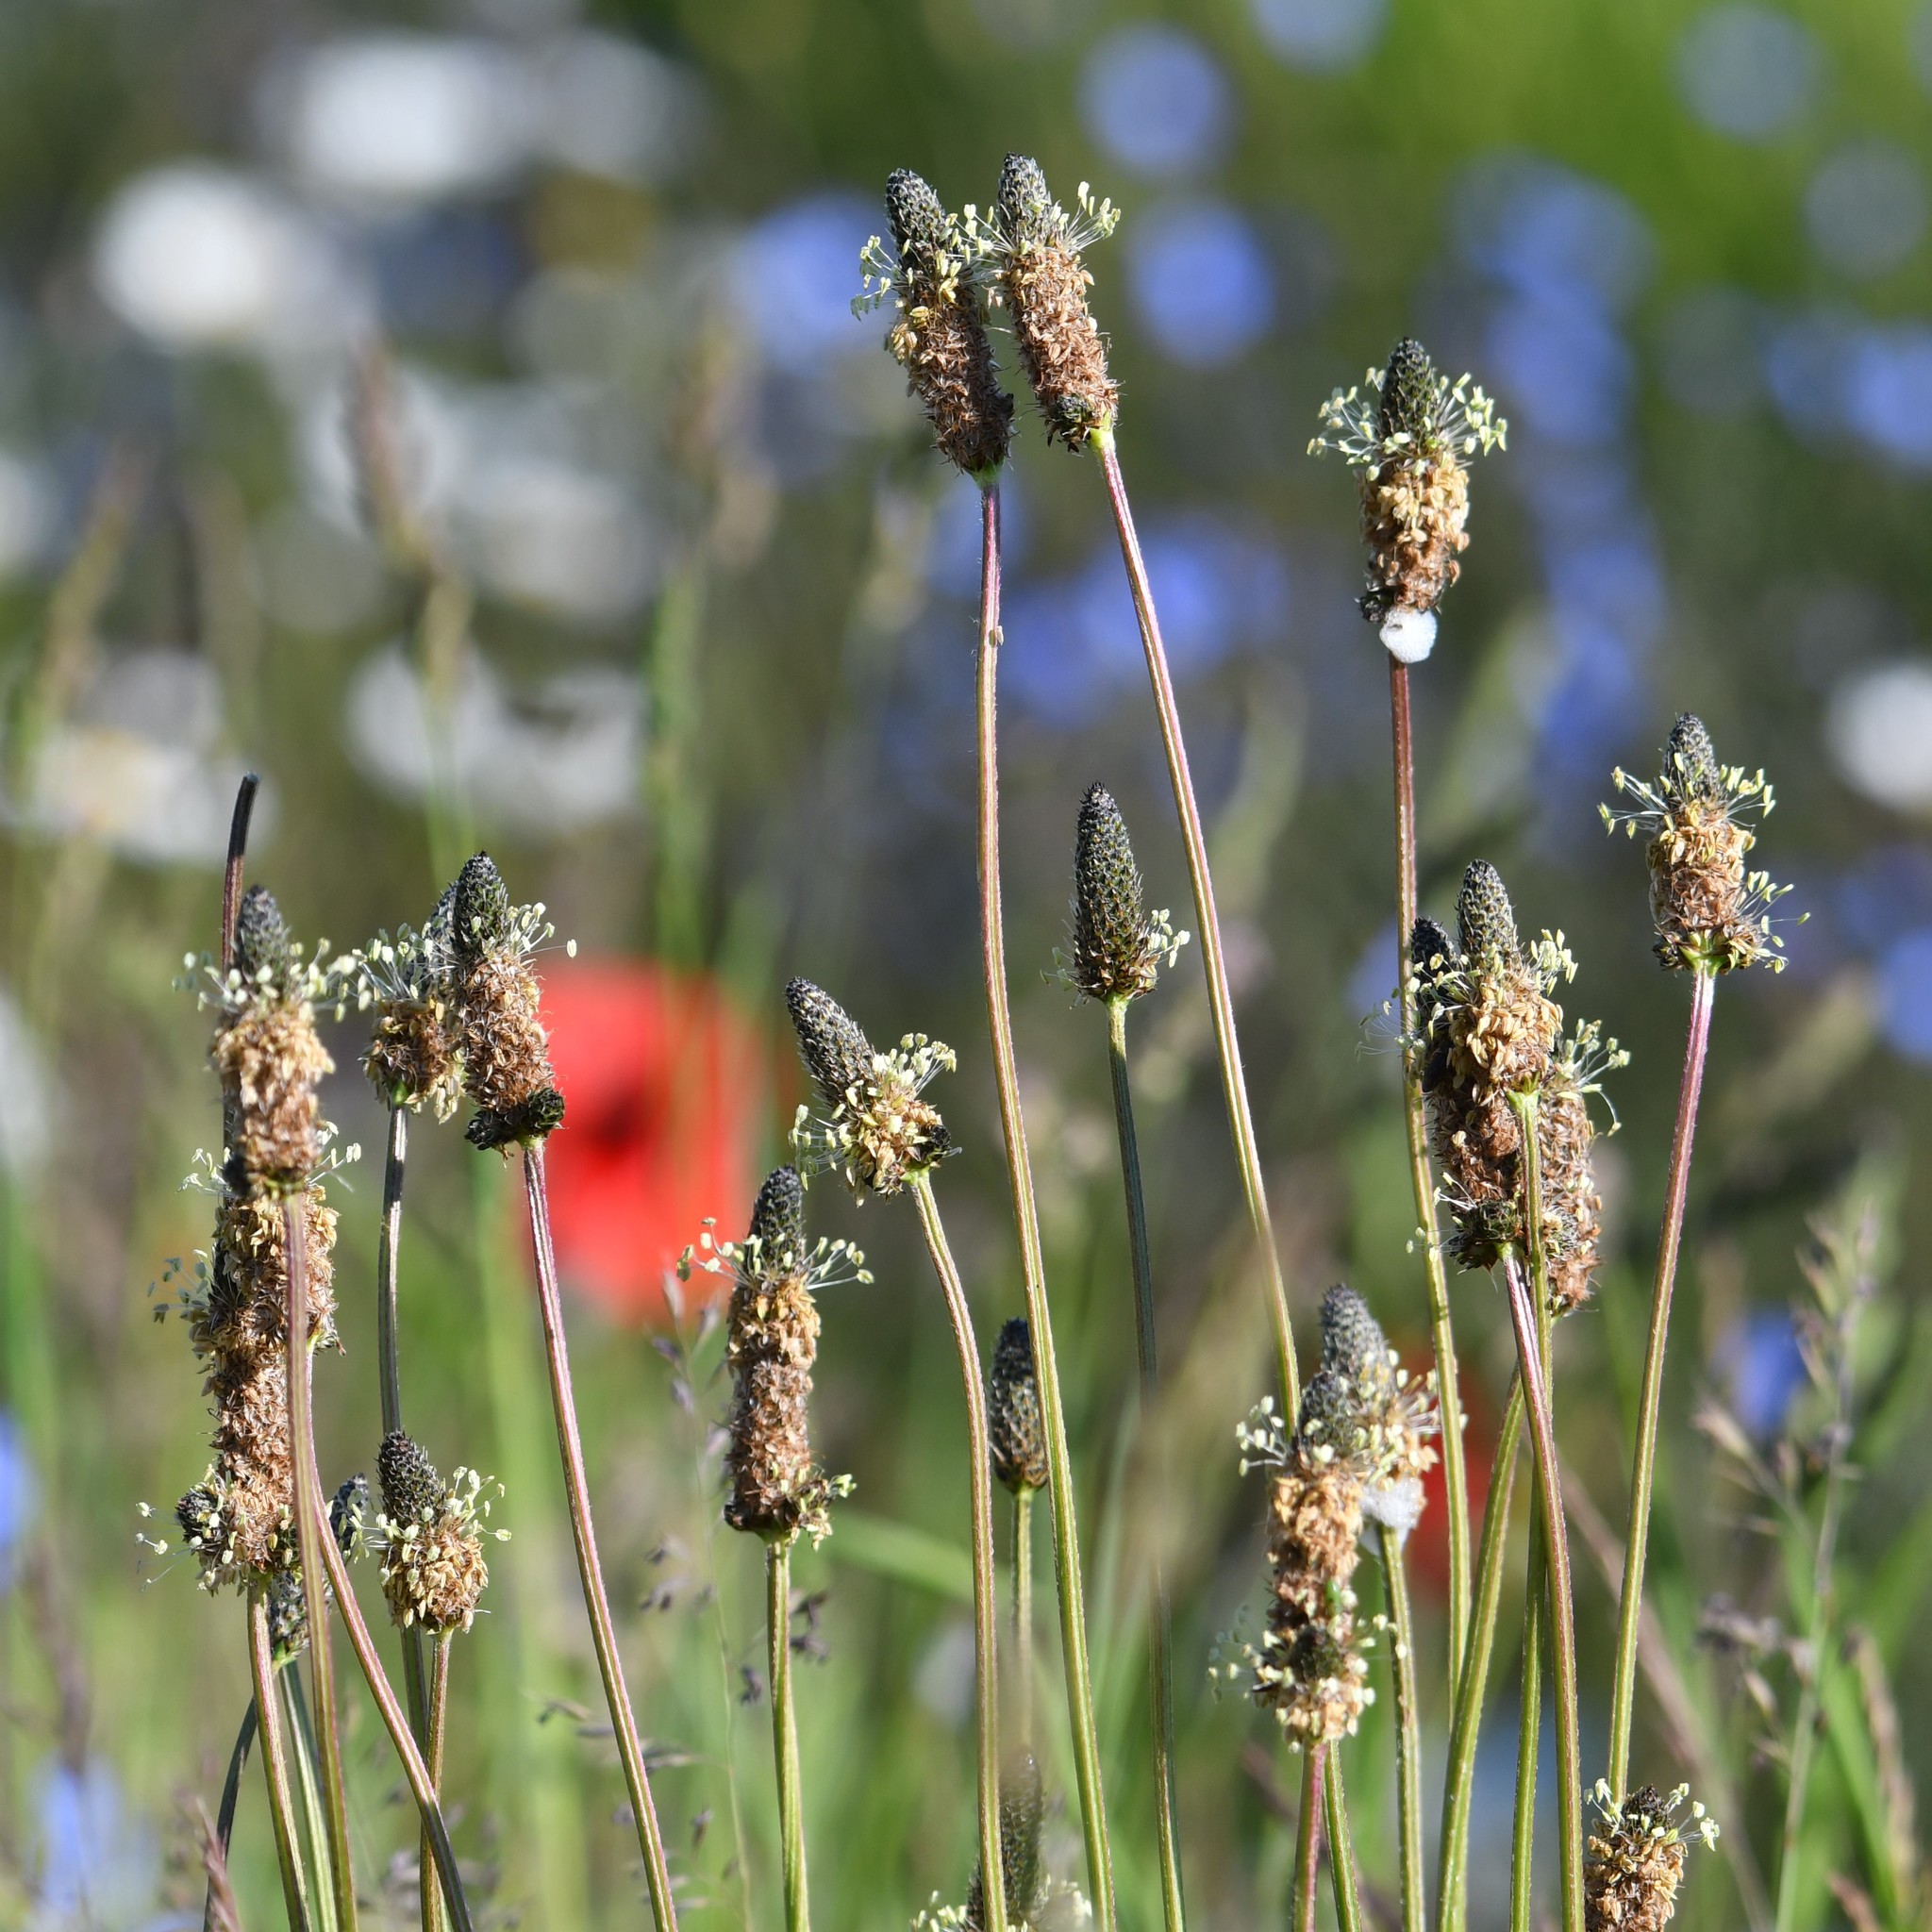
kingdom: Plantae
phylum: Tracheophyta
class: Magnoliopsida
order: Lamiales
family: Plantaginaceae
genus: Plantago
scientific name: Plantago lanceolata
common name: Ribwort plantain
